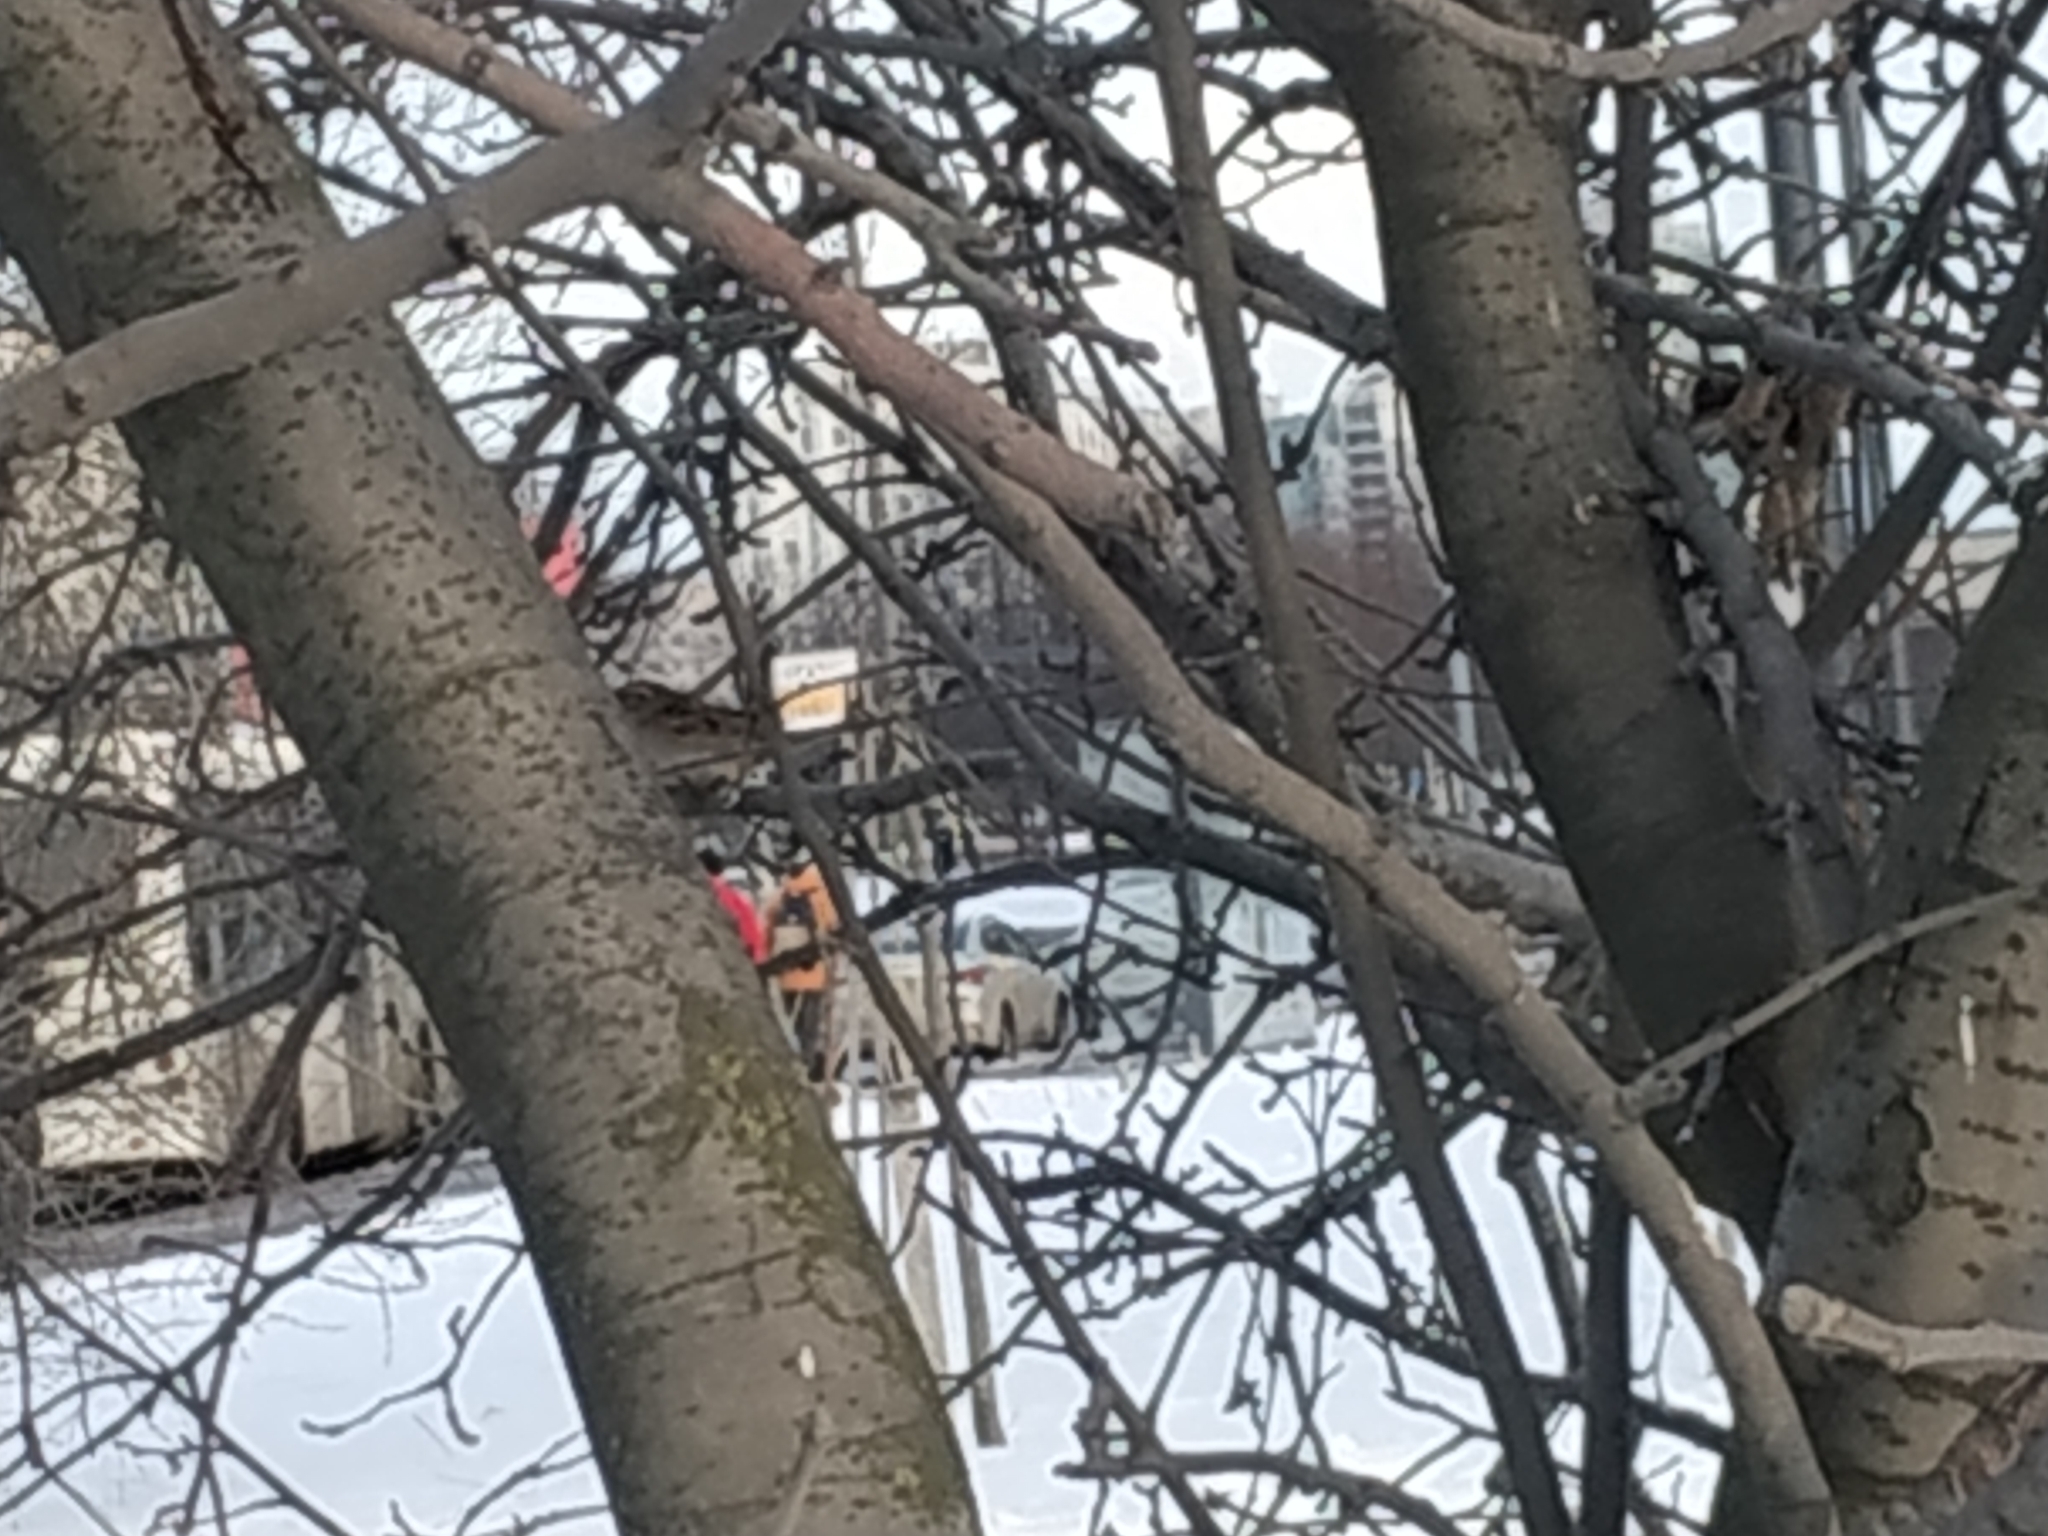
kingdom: Animalia
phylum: Chordata
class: Aves
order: Passeriformes
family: Passeridae
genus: Passer
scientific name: Passer domesticus
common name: House sparrow
